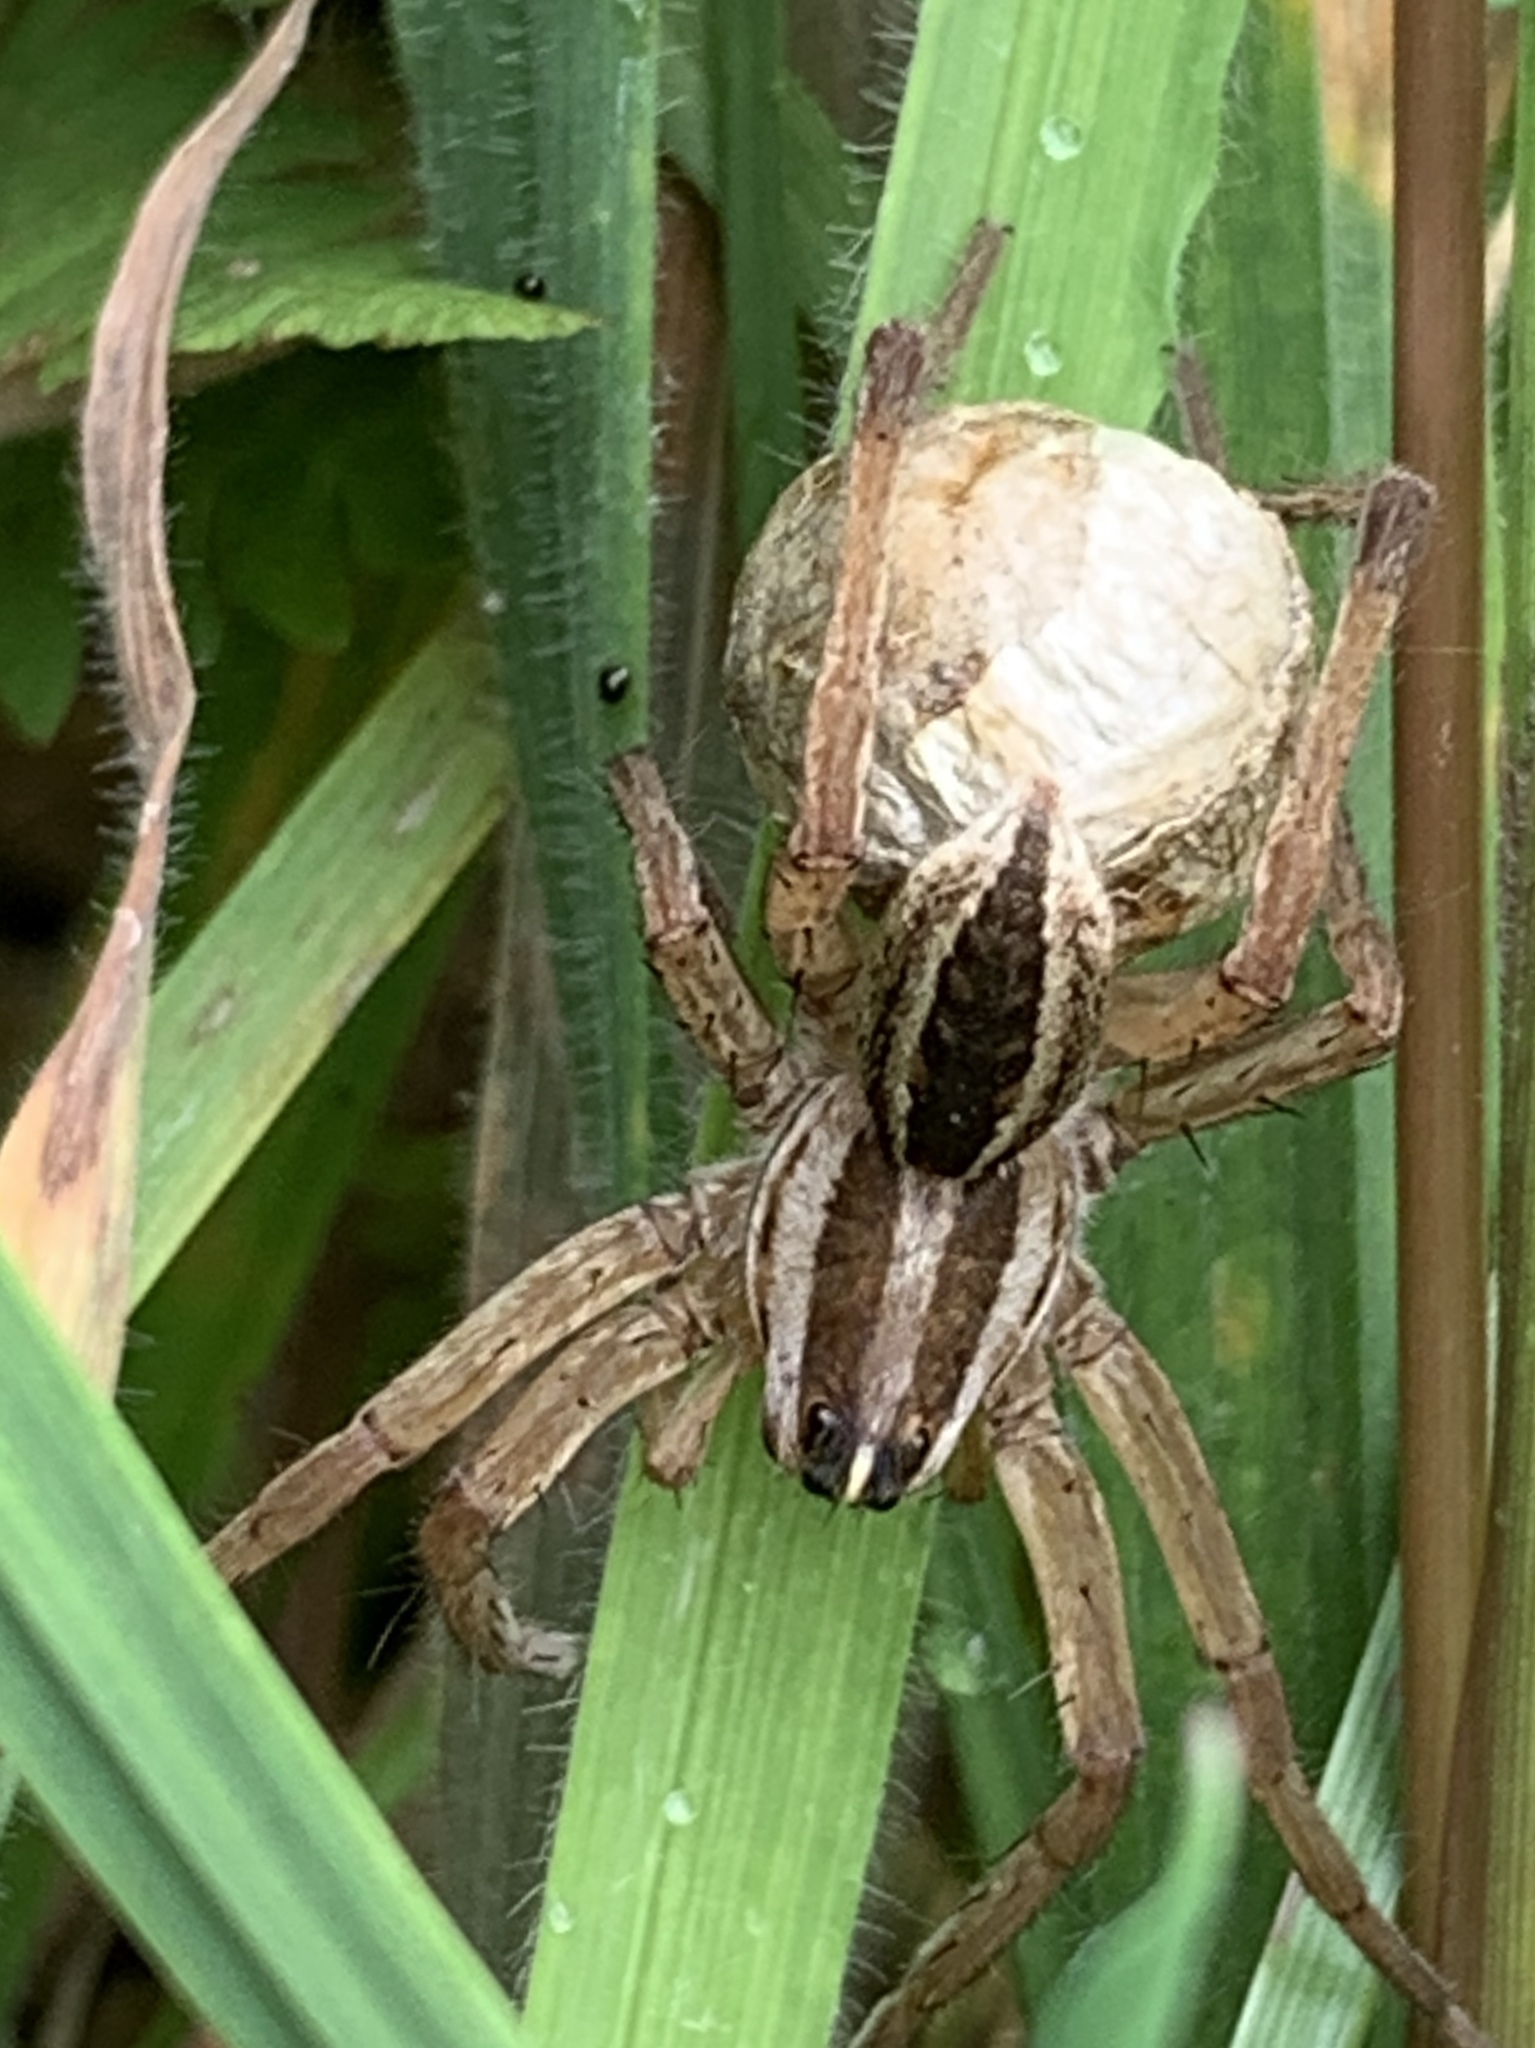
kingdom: Animalia
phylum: Arthropoda
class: Arachnida
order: Araneae
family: Lycosidae
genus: Rabidosa
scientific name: Rabidosa rabida
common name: Rabid wolf spider
